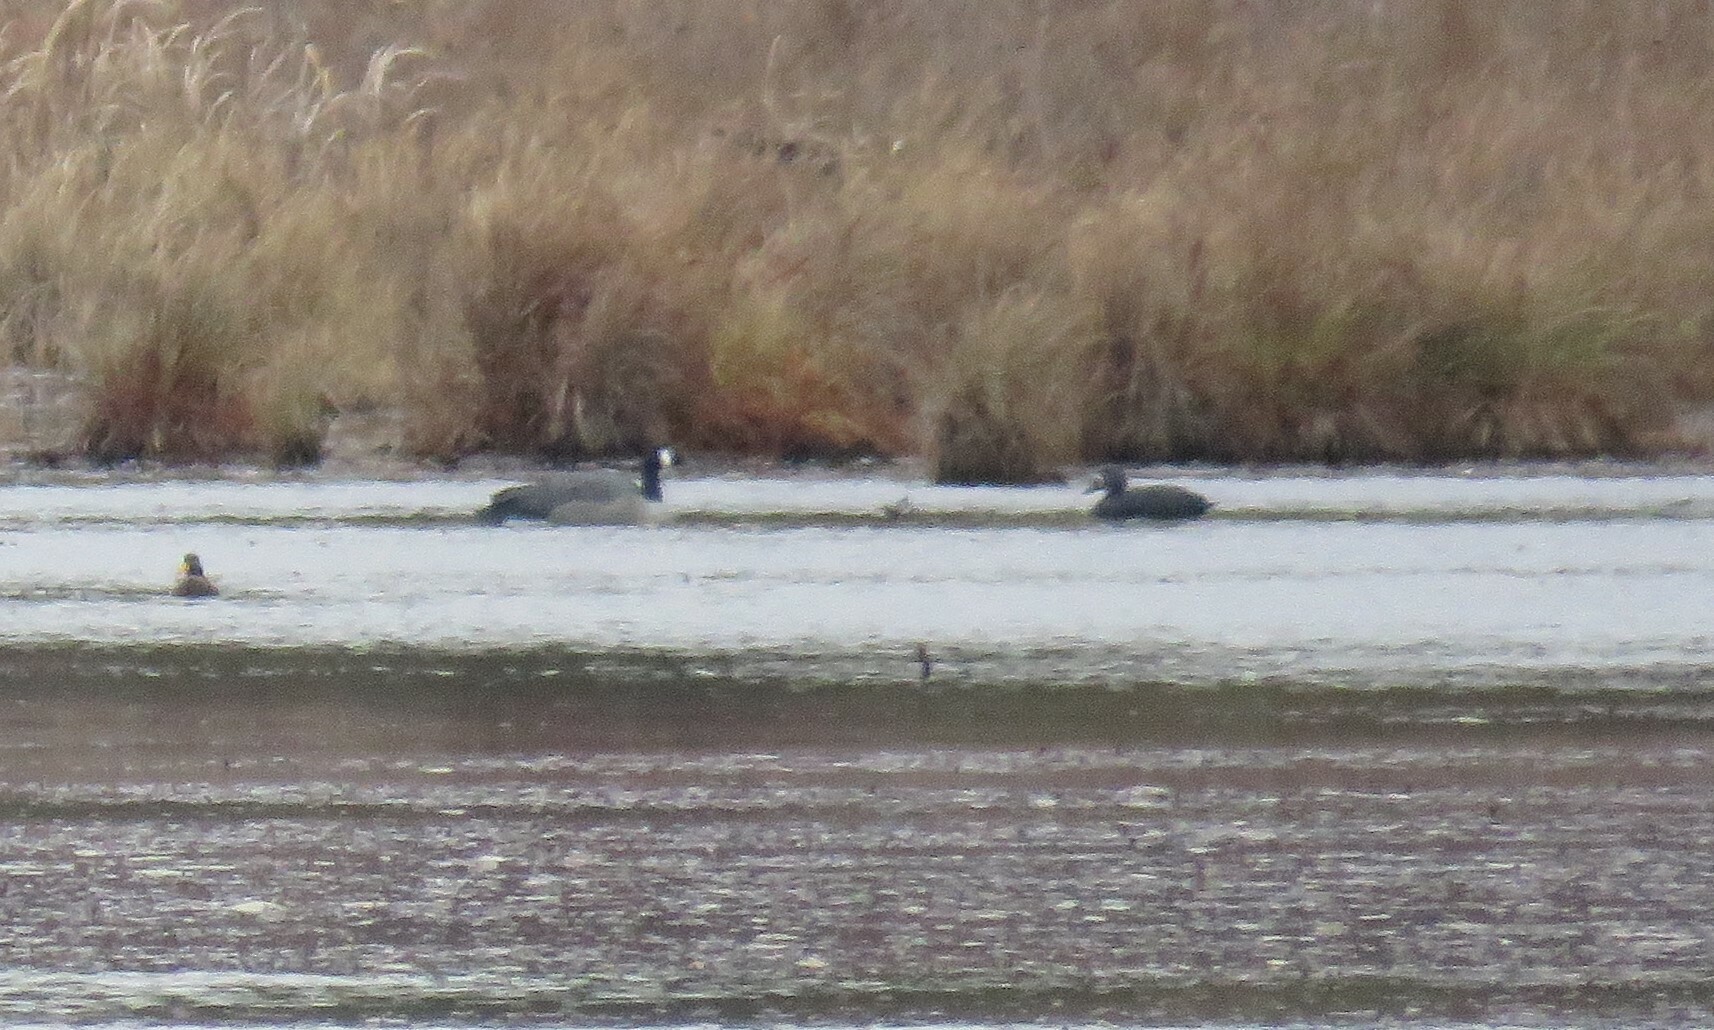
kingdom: Animalia
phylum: Chordata
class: Aves
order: Gruiformes
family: Rallidae
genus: Fulica
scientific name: Fulica americana
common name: American coot
